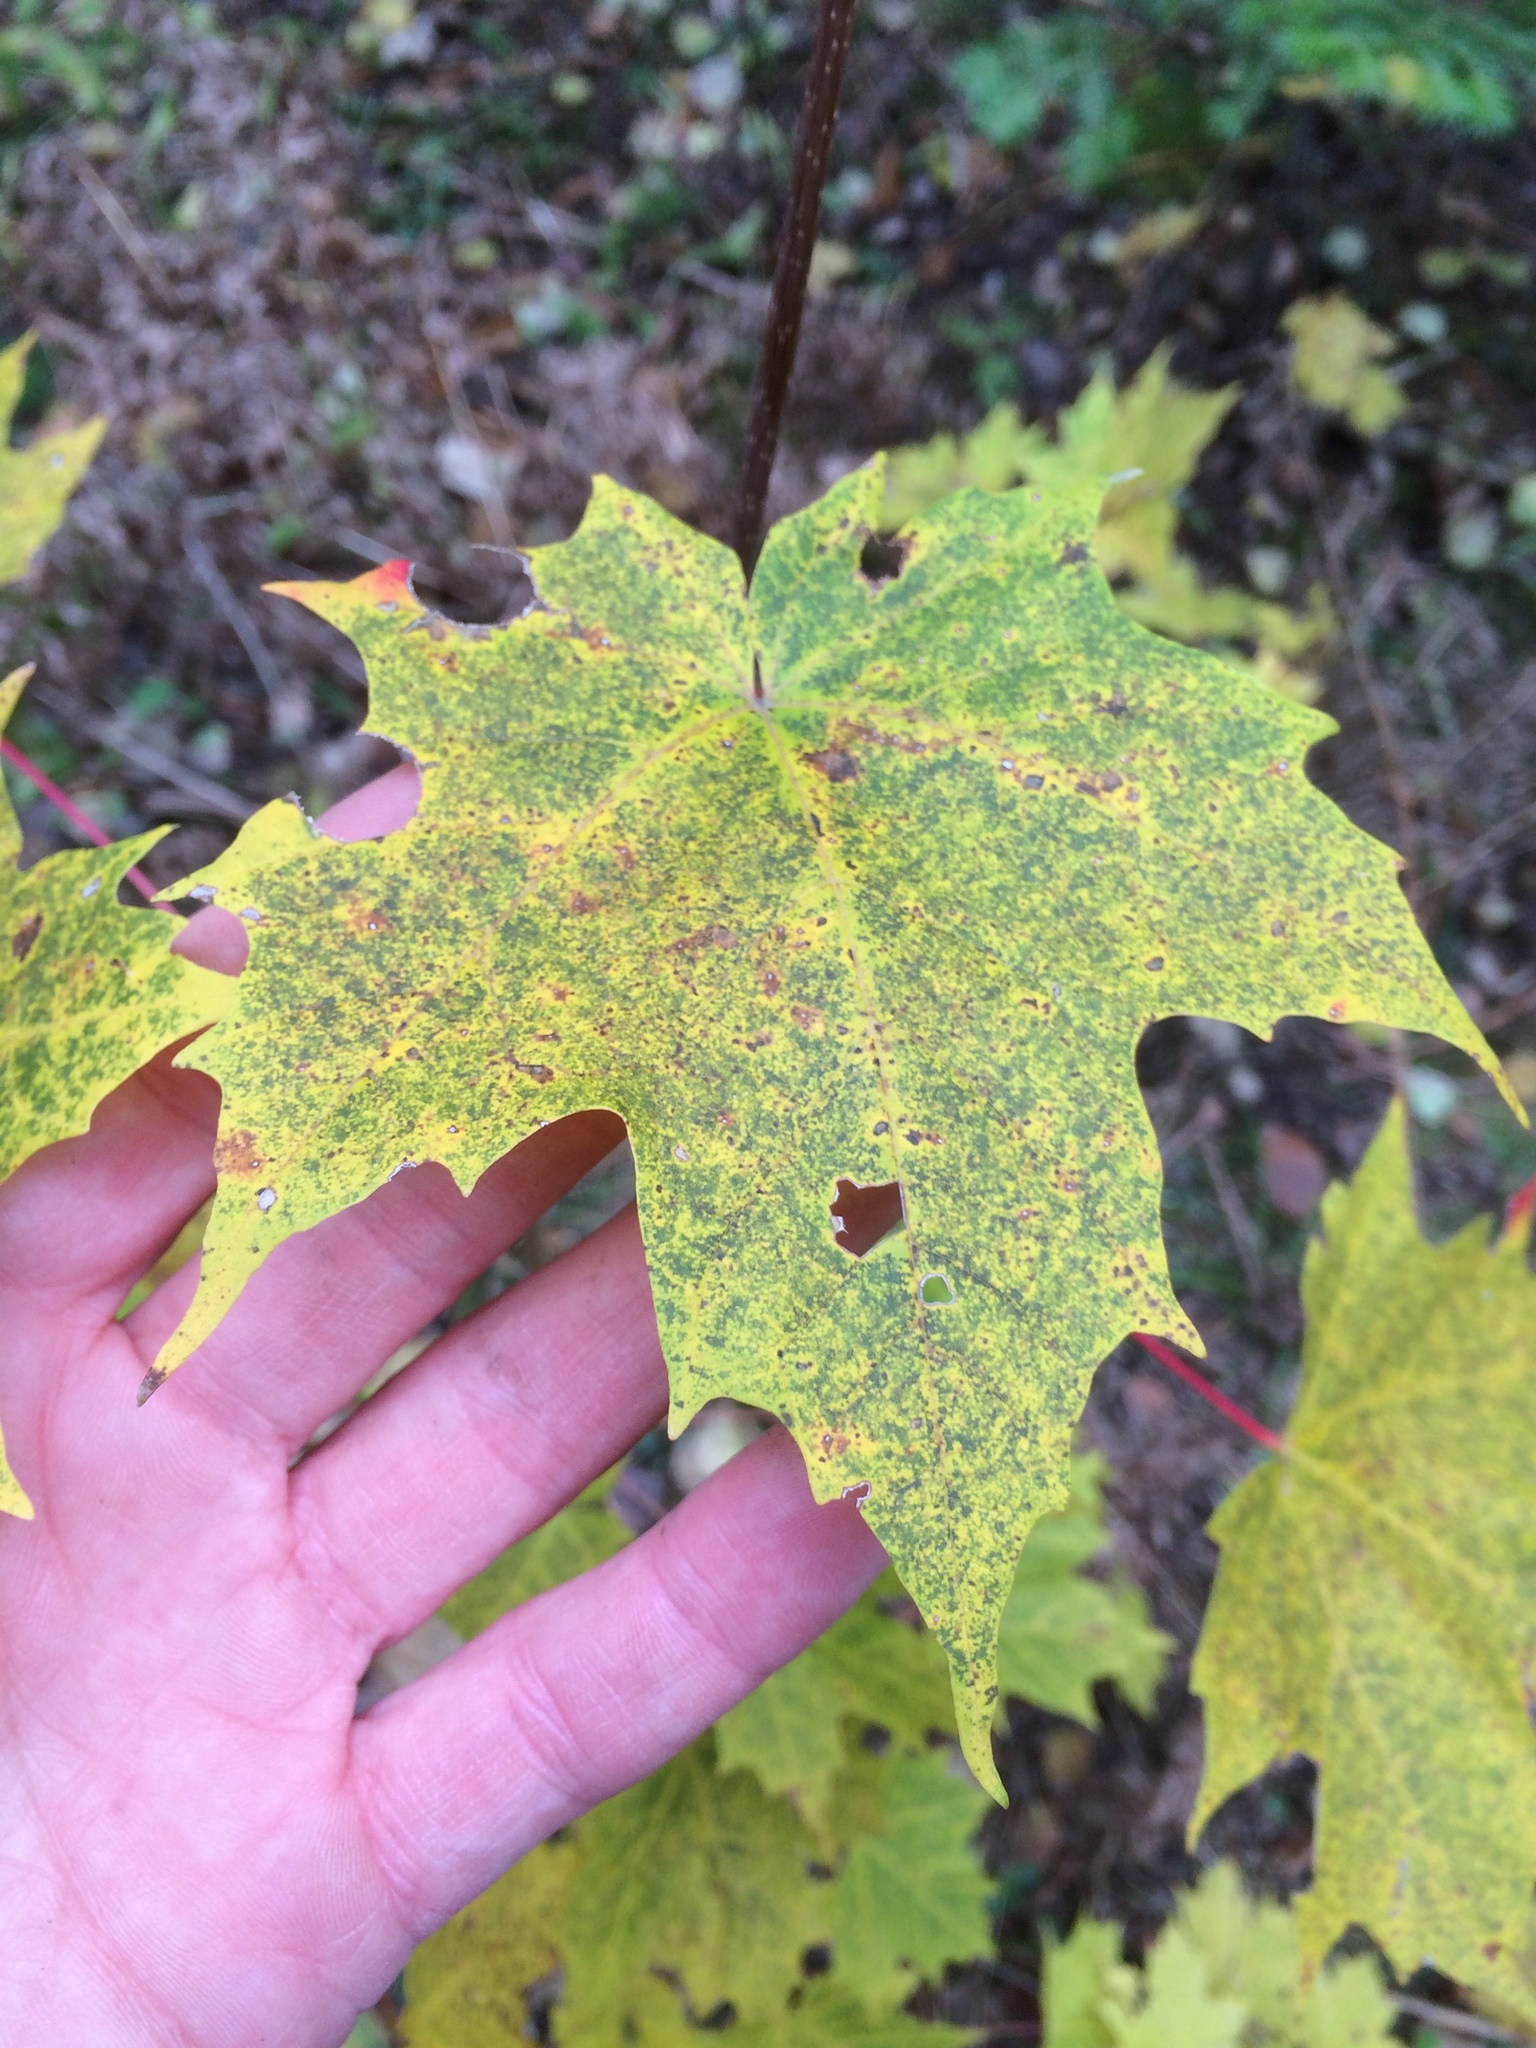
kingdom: Plantae
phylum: Tracheophyta
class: Magnoliopsida
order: Sapindales
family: Sapindaceae
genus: Acer
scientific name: Acer saccharum
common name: Sugar maple
